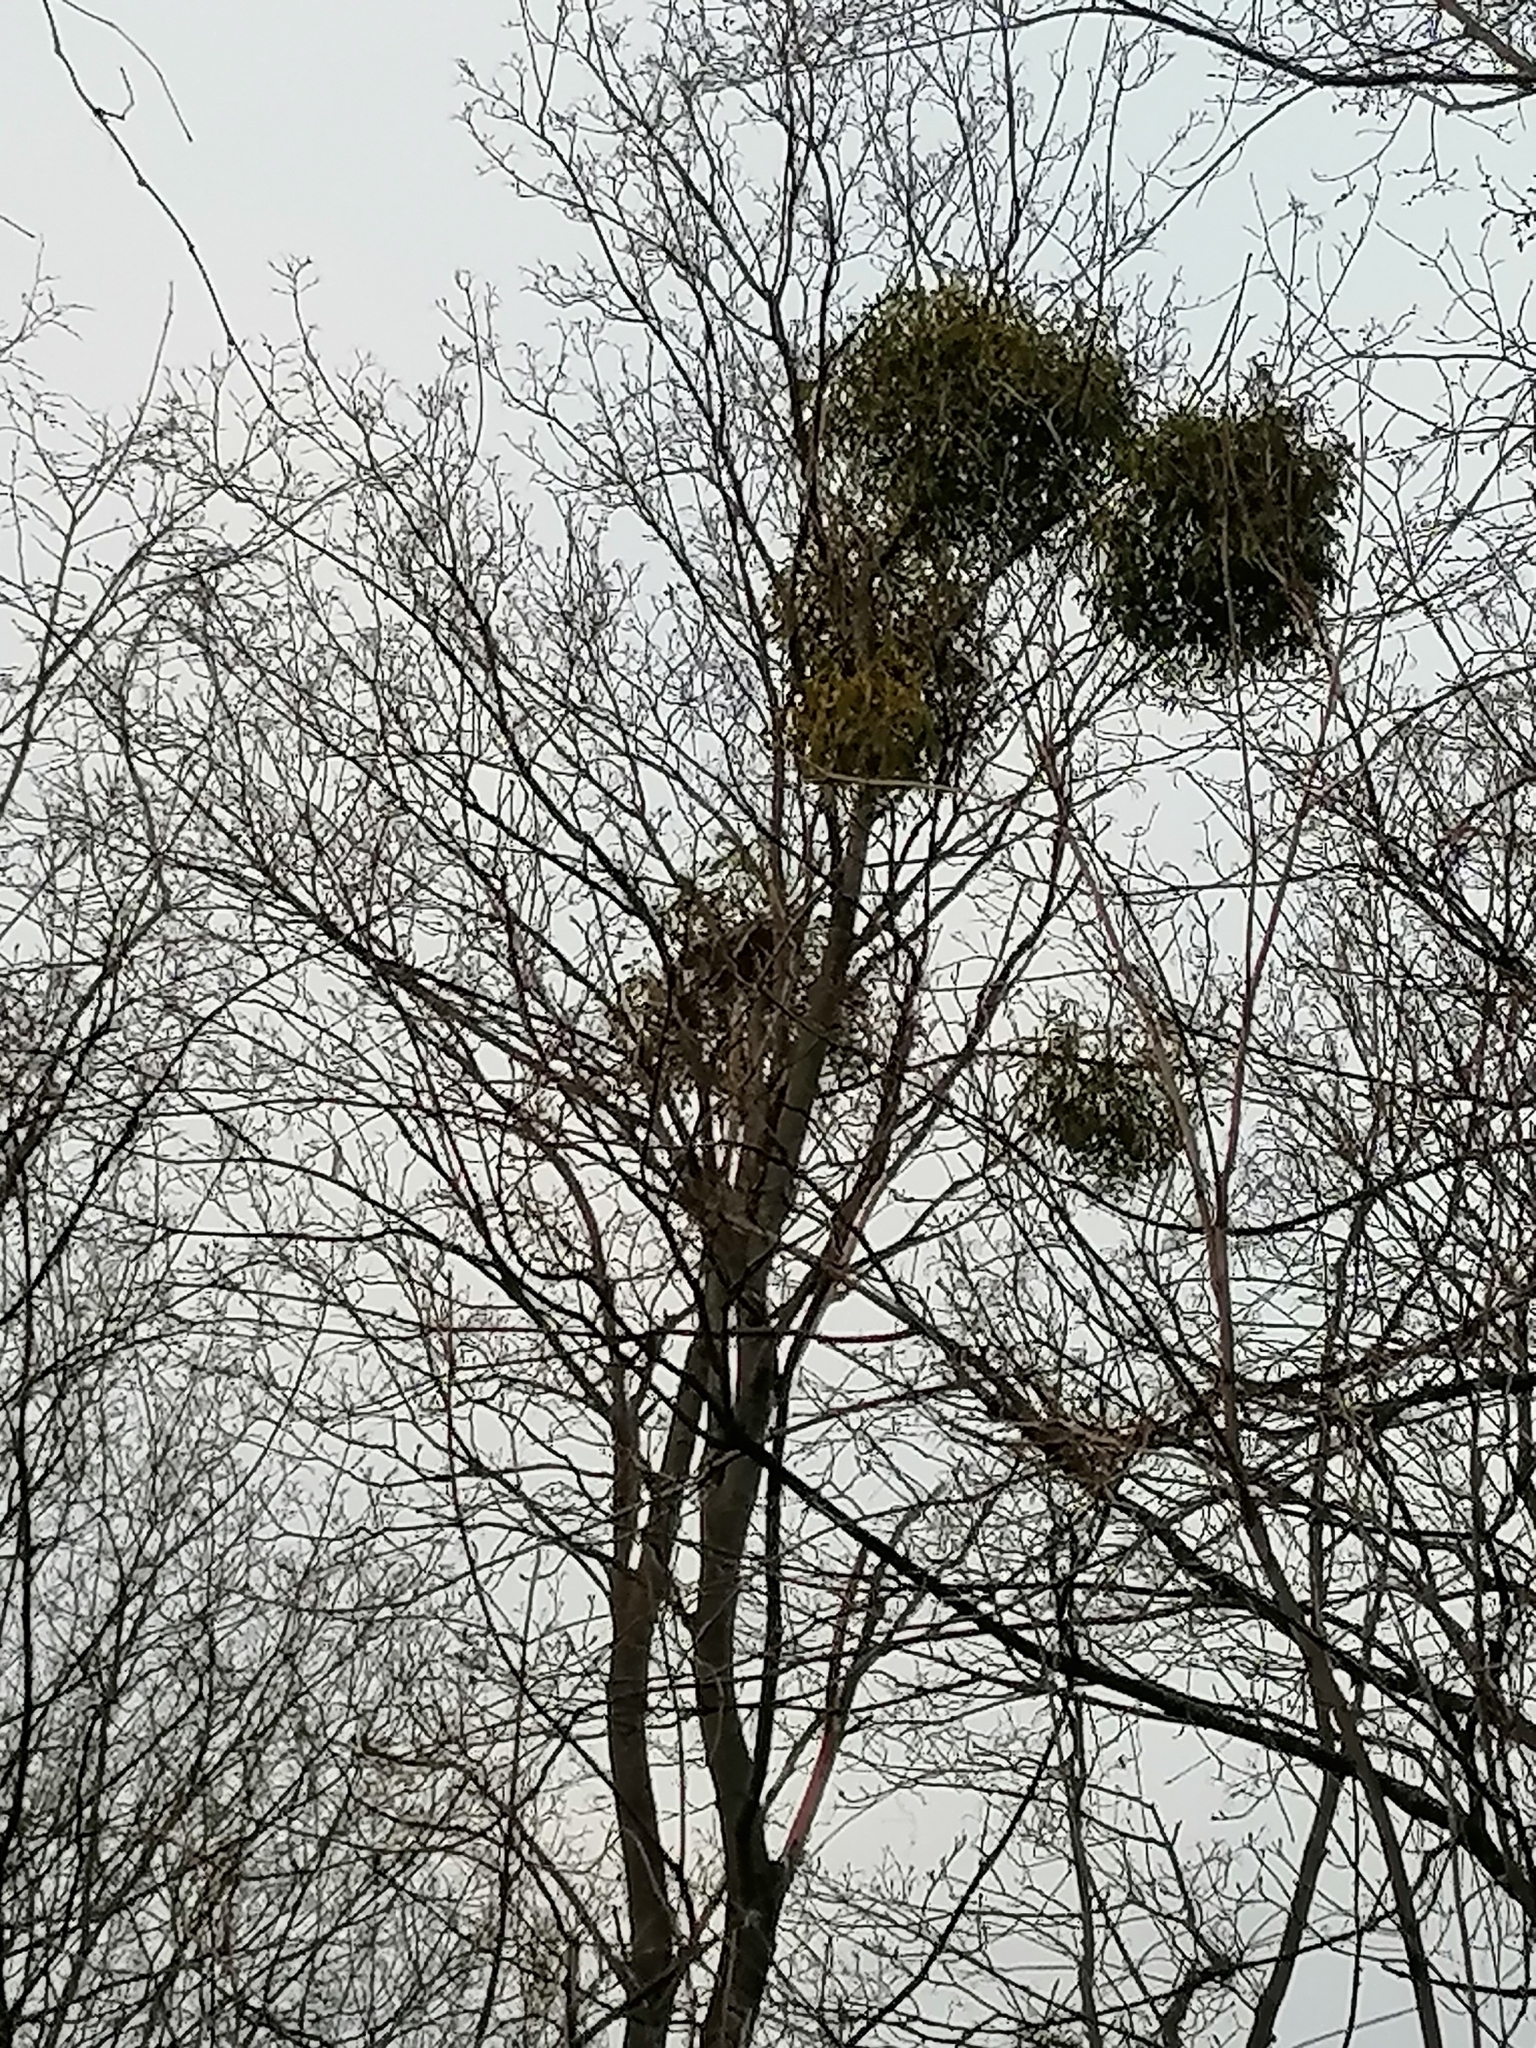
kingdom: Plantae
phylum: Tracheophyta
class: Magnoliopsida
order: Santalales
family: Viscaceae
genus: Viscum
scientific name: Viscum album
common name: Mistletoe
